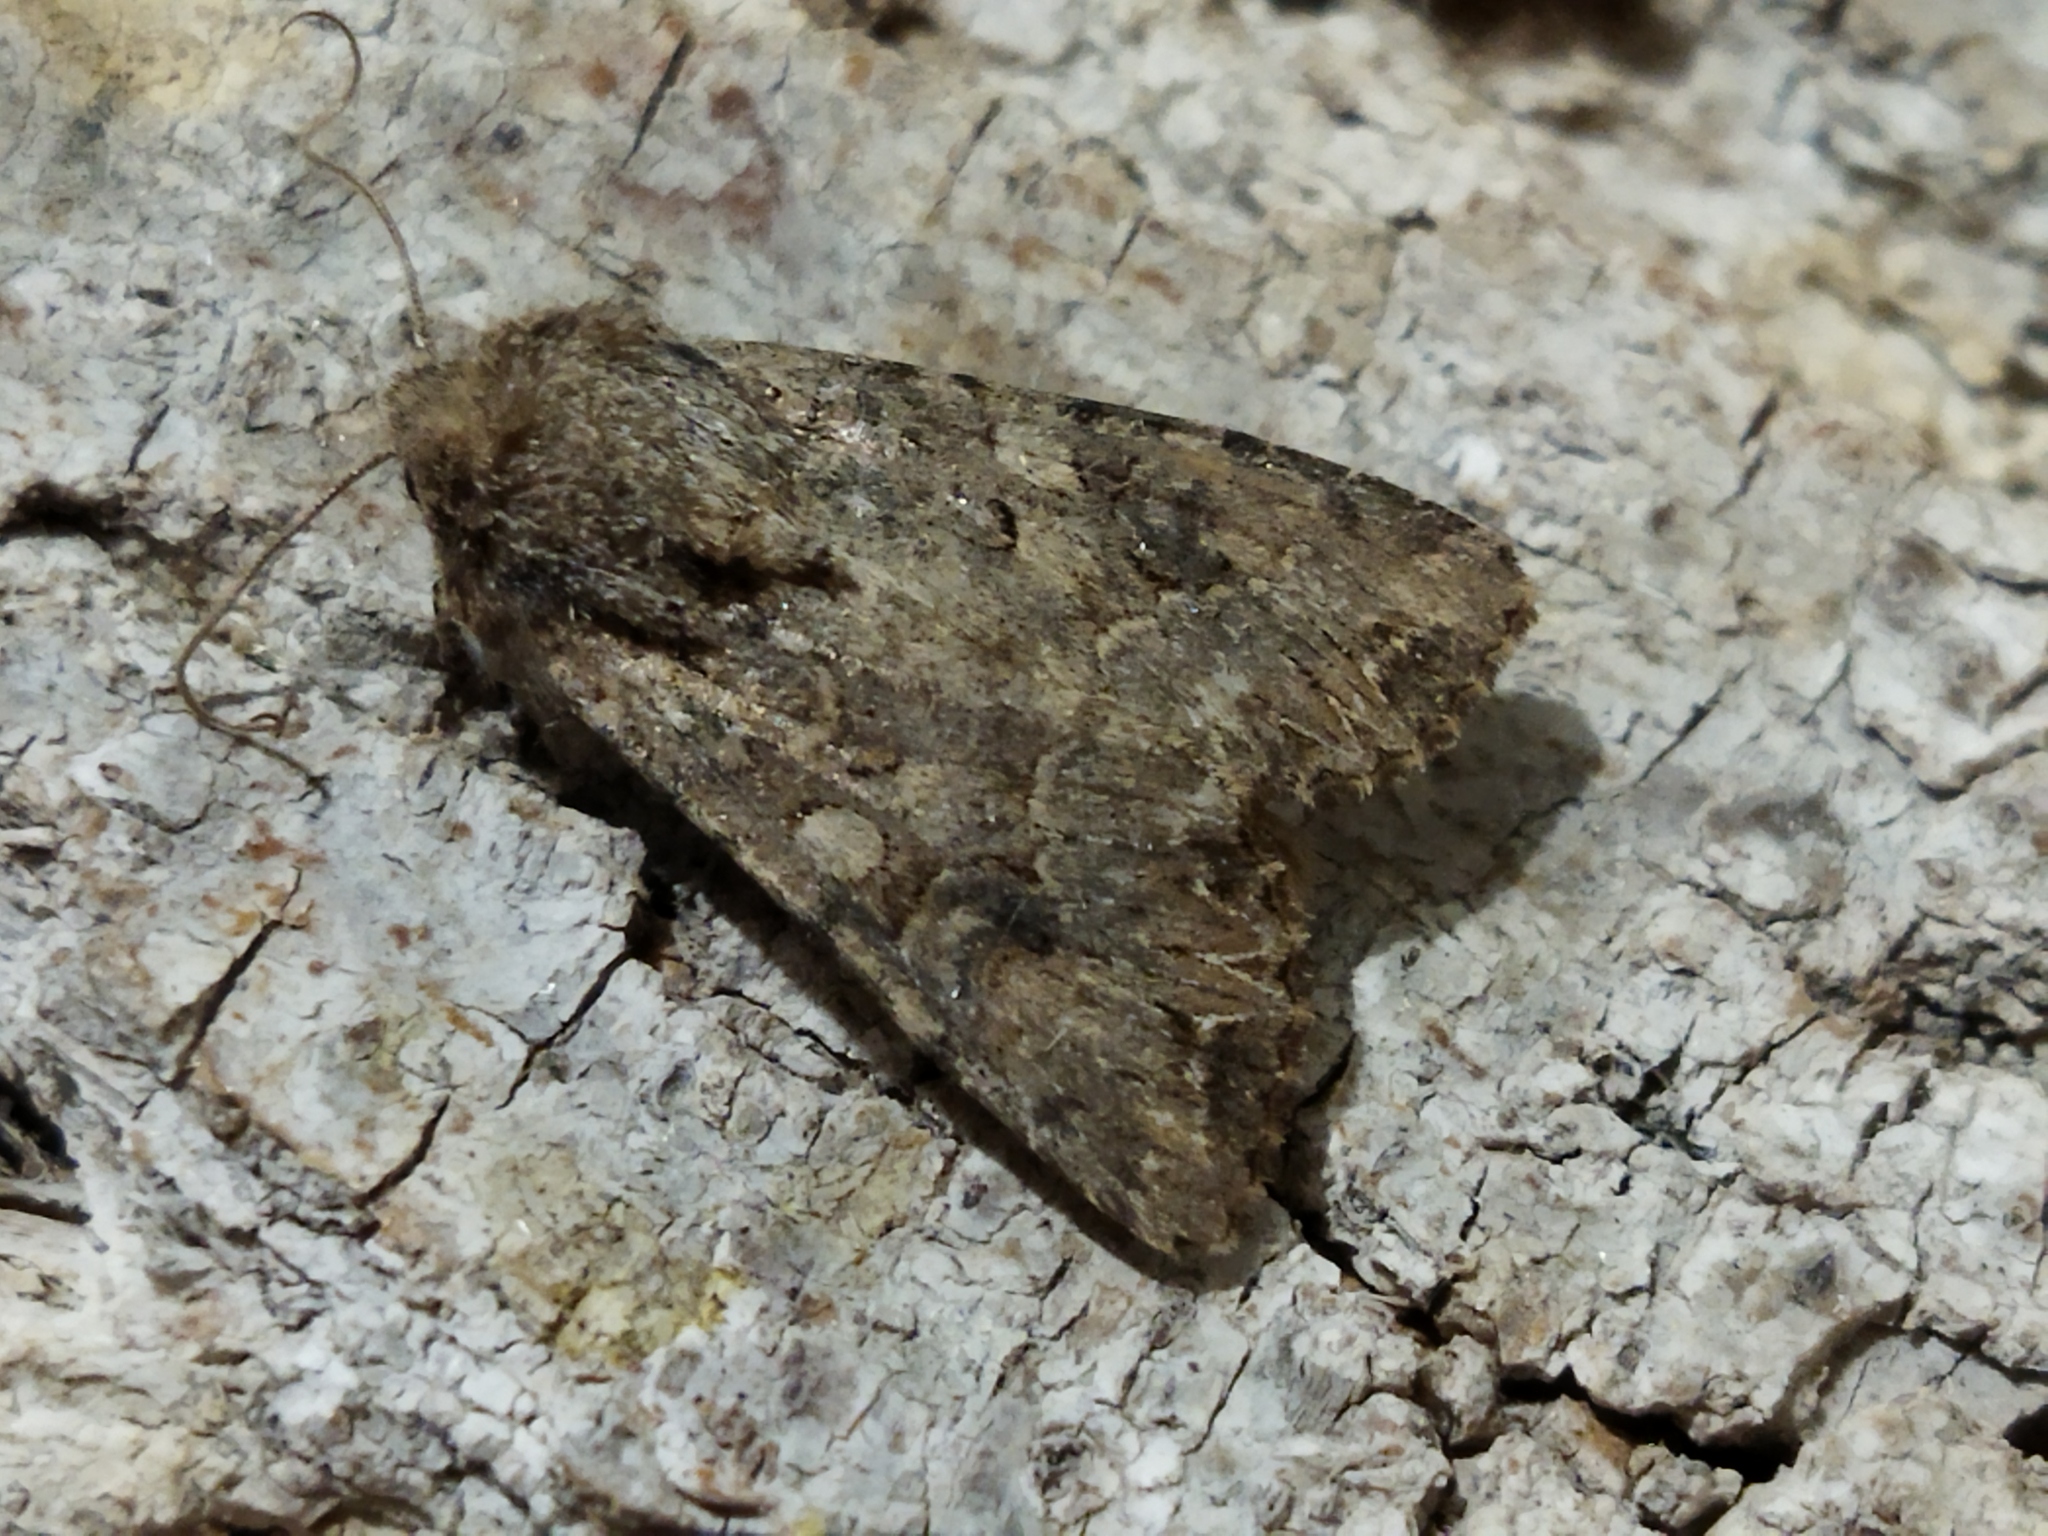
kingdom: Animalia
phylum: Arthropoda
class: Insecta
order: Lepidoptera
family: Noctuidae
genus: Anarta
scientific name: Anarta trifolii
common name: Clover cutworm moth
